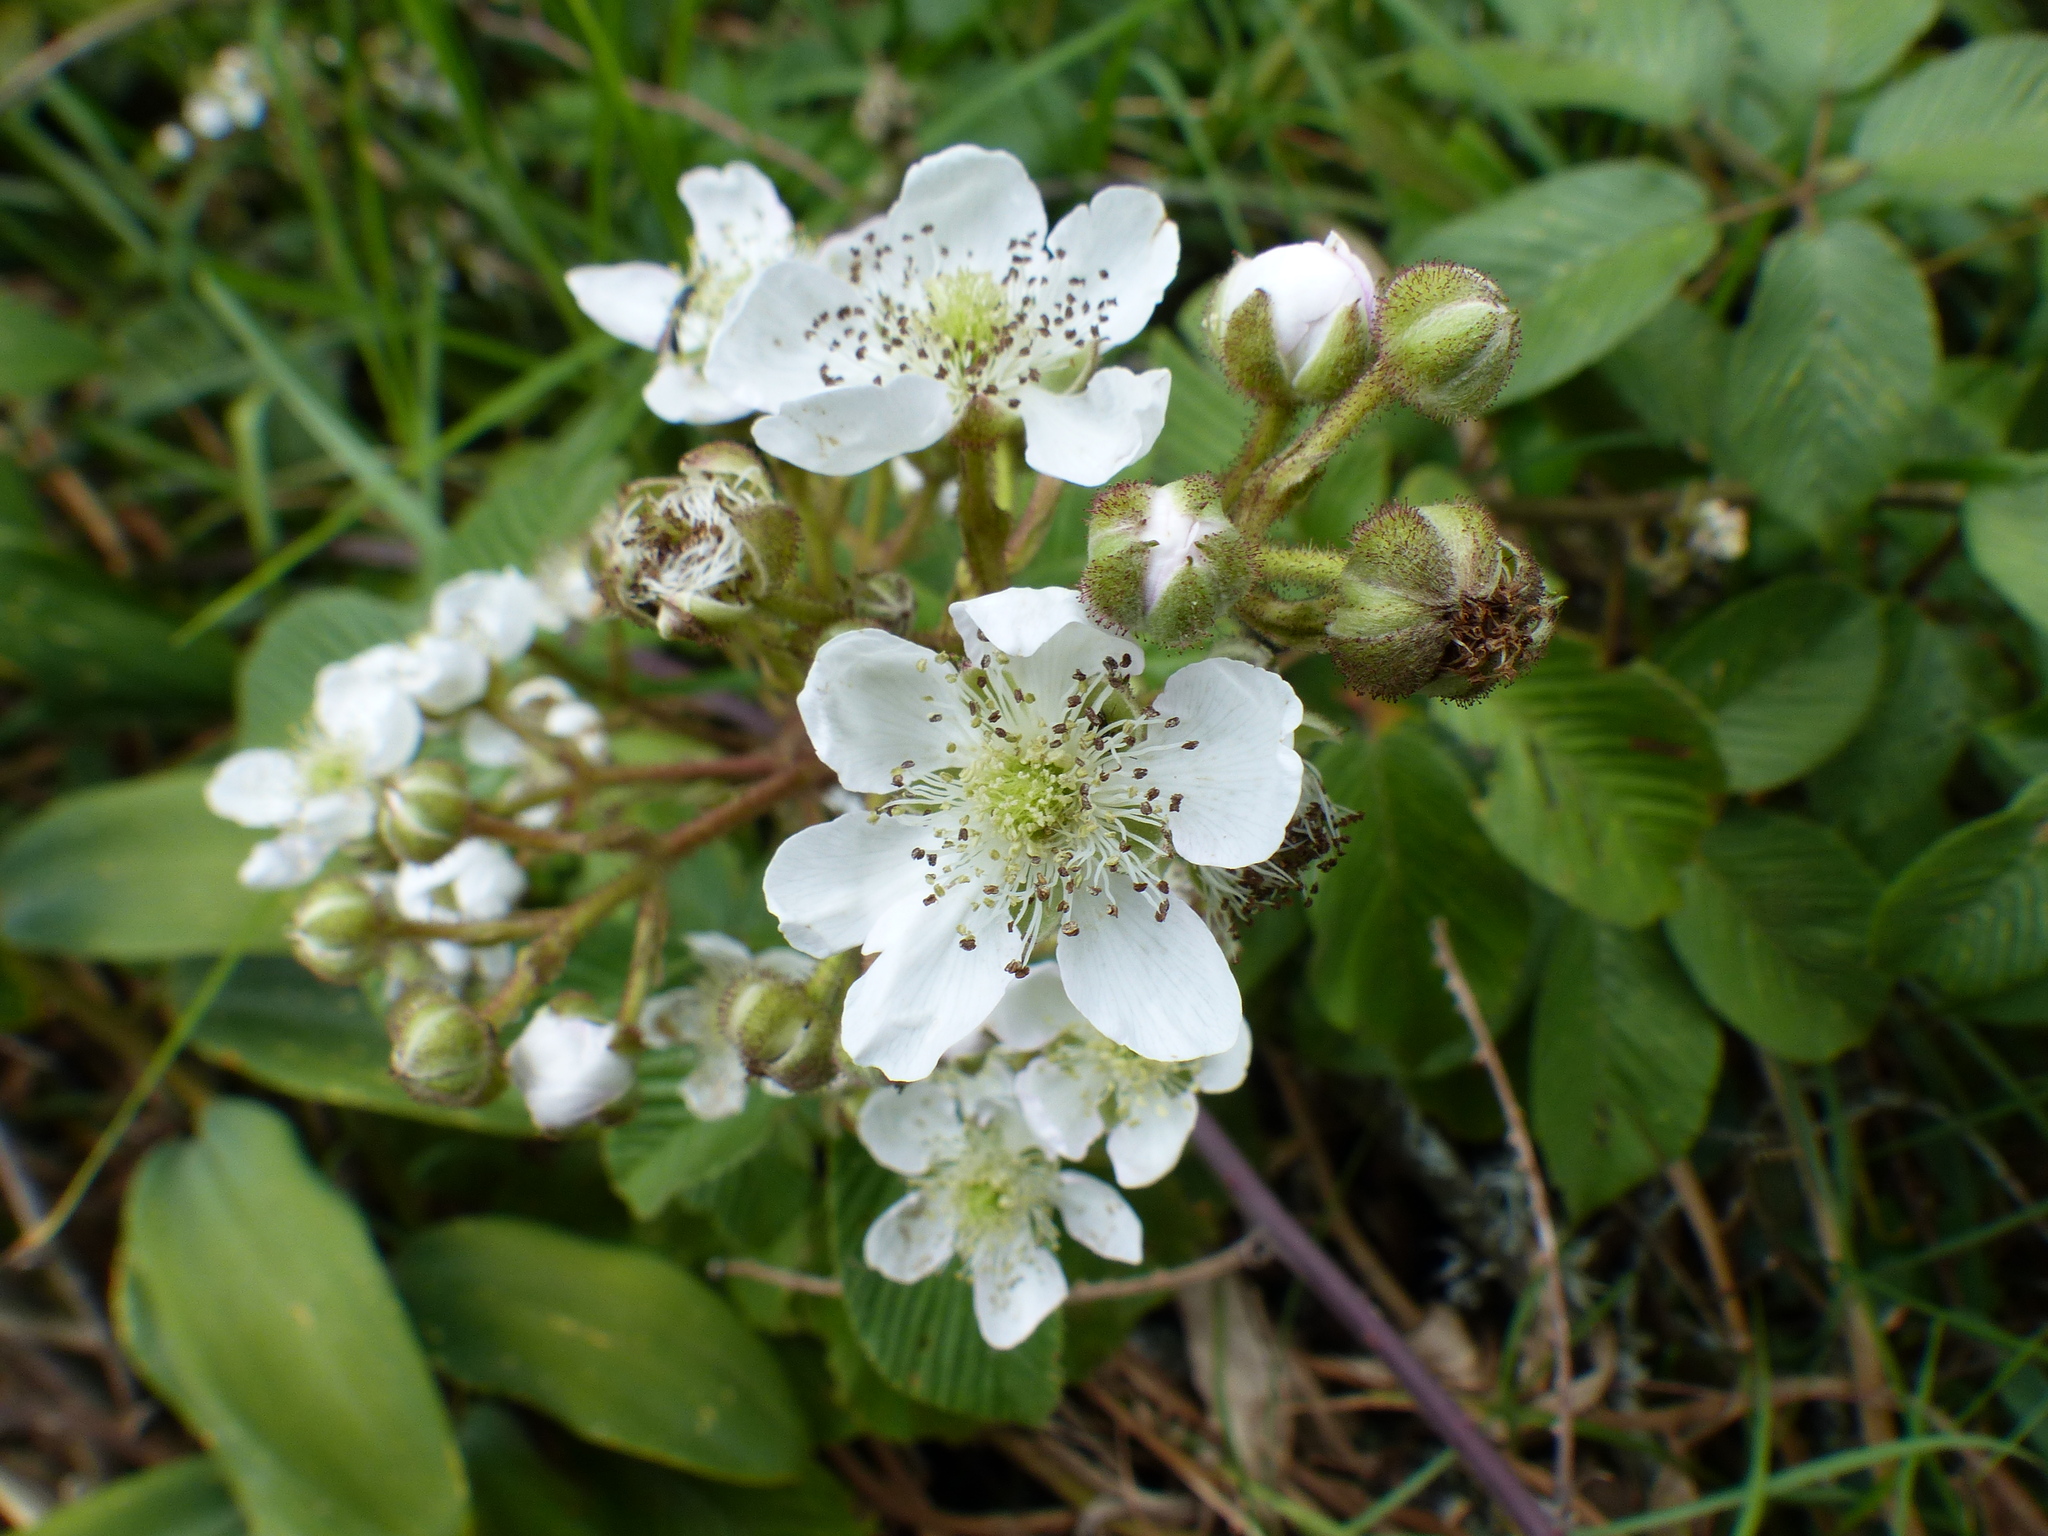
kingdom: Plantae
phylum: Tracheophyta
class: Magnoliopsida
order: Rosales
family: Rosaceae
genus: Rubus
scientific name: Rubus floribundus
